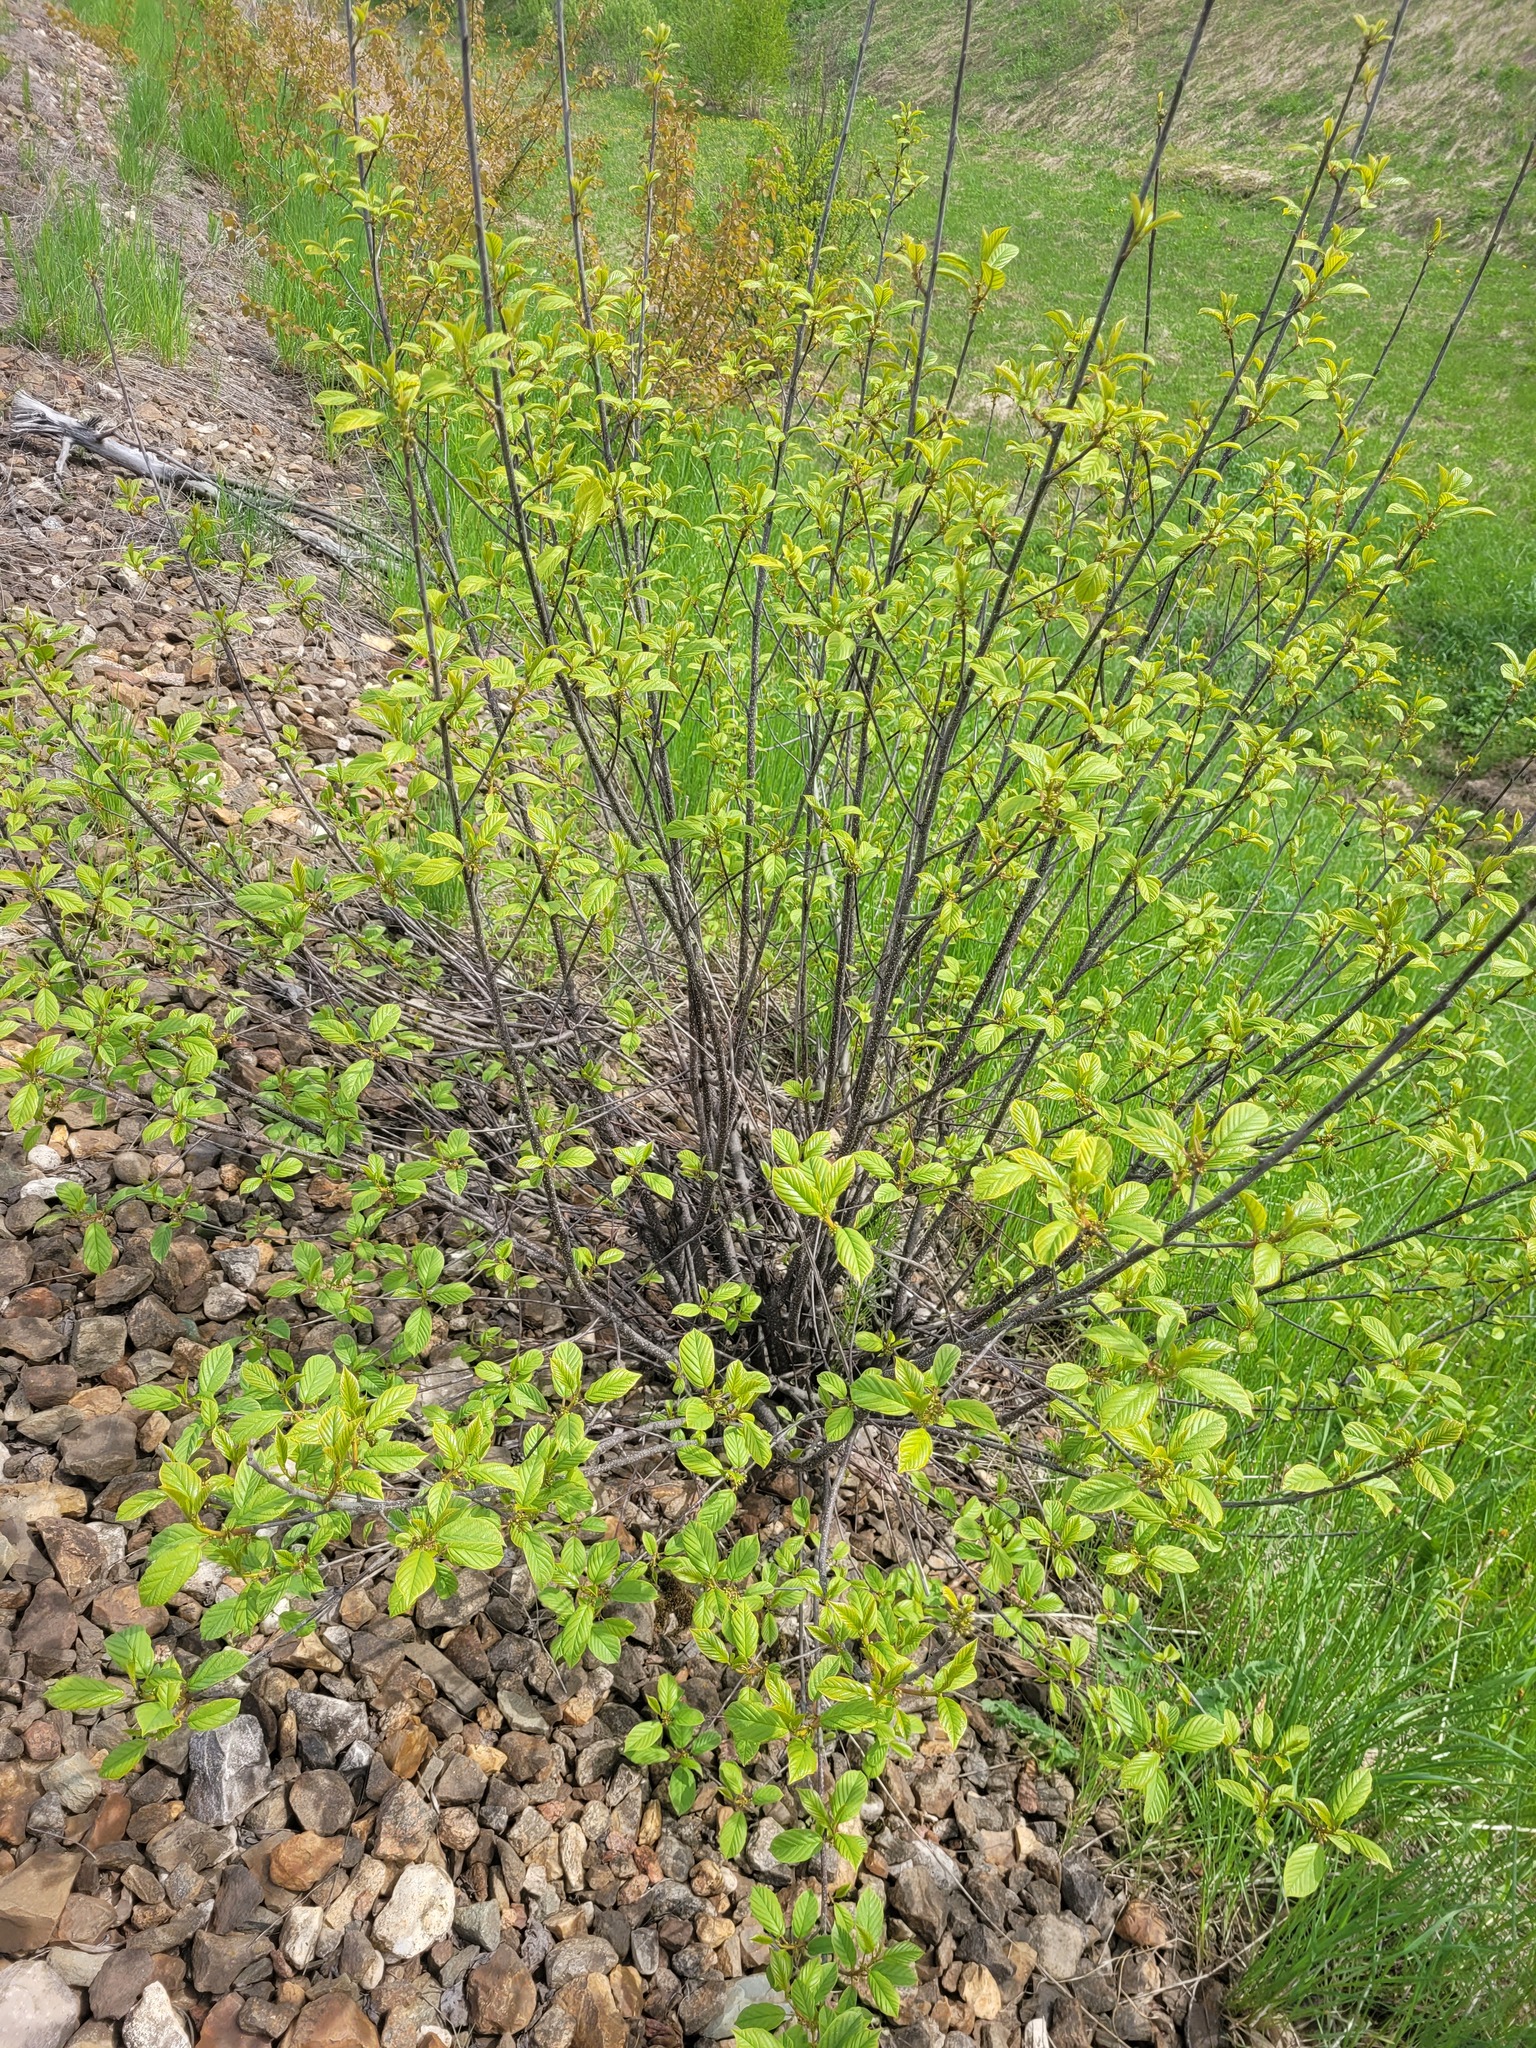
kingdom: Plantae
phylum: Tracheophyta
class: Magnoliopsida
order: Rosales
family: Rhamnaceae
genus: Frangula
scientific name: Frangula alnus
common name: Alder buckthorn
